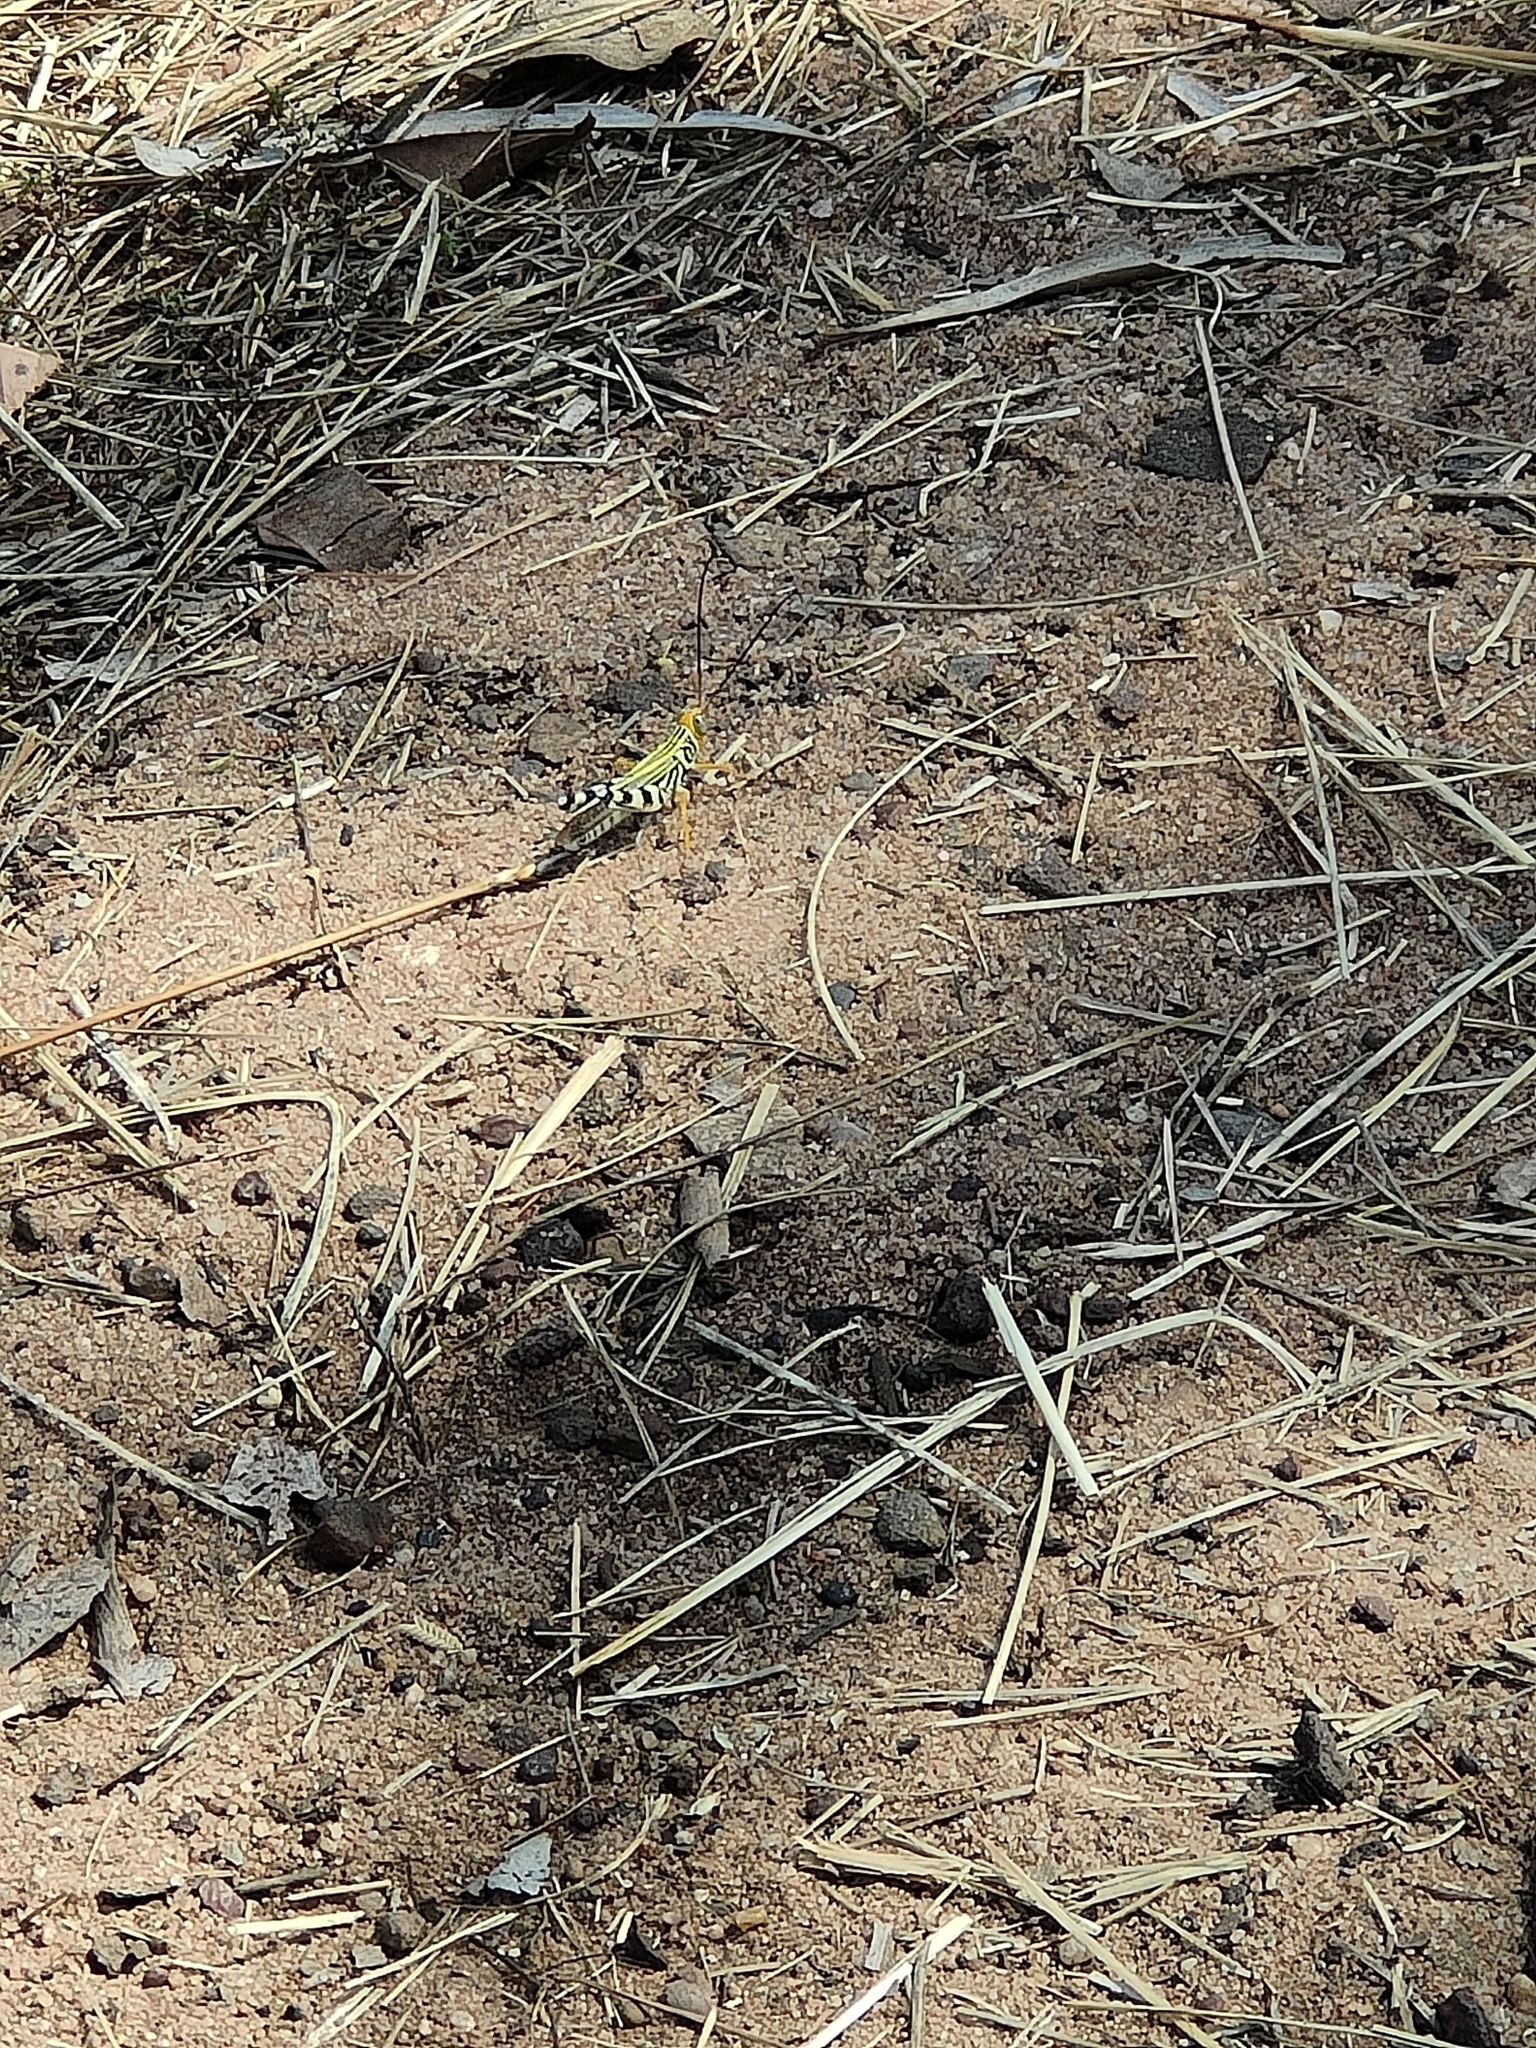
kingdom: Animalia
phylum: Arthropoda
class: Insecta
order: Orthoptera
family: Acrididae
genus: Zebratula
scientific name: Zebratula flavonigra
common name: Zebra grasshopper
